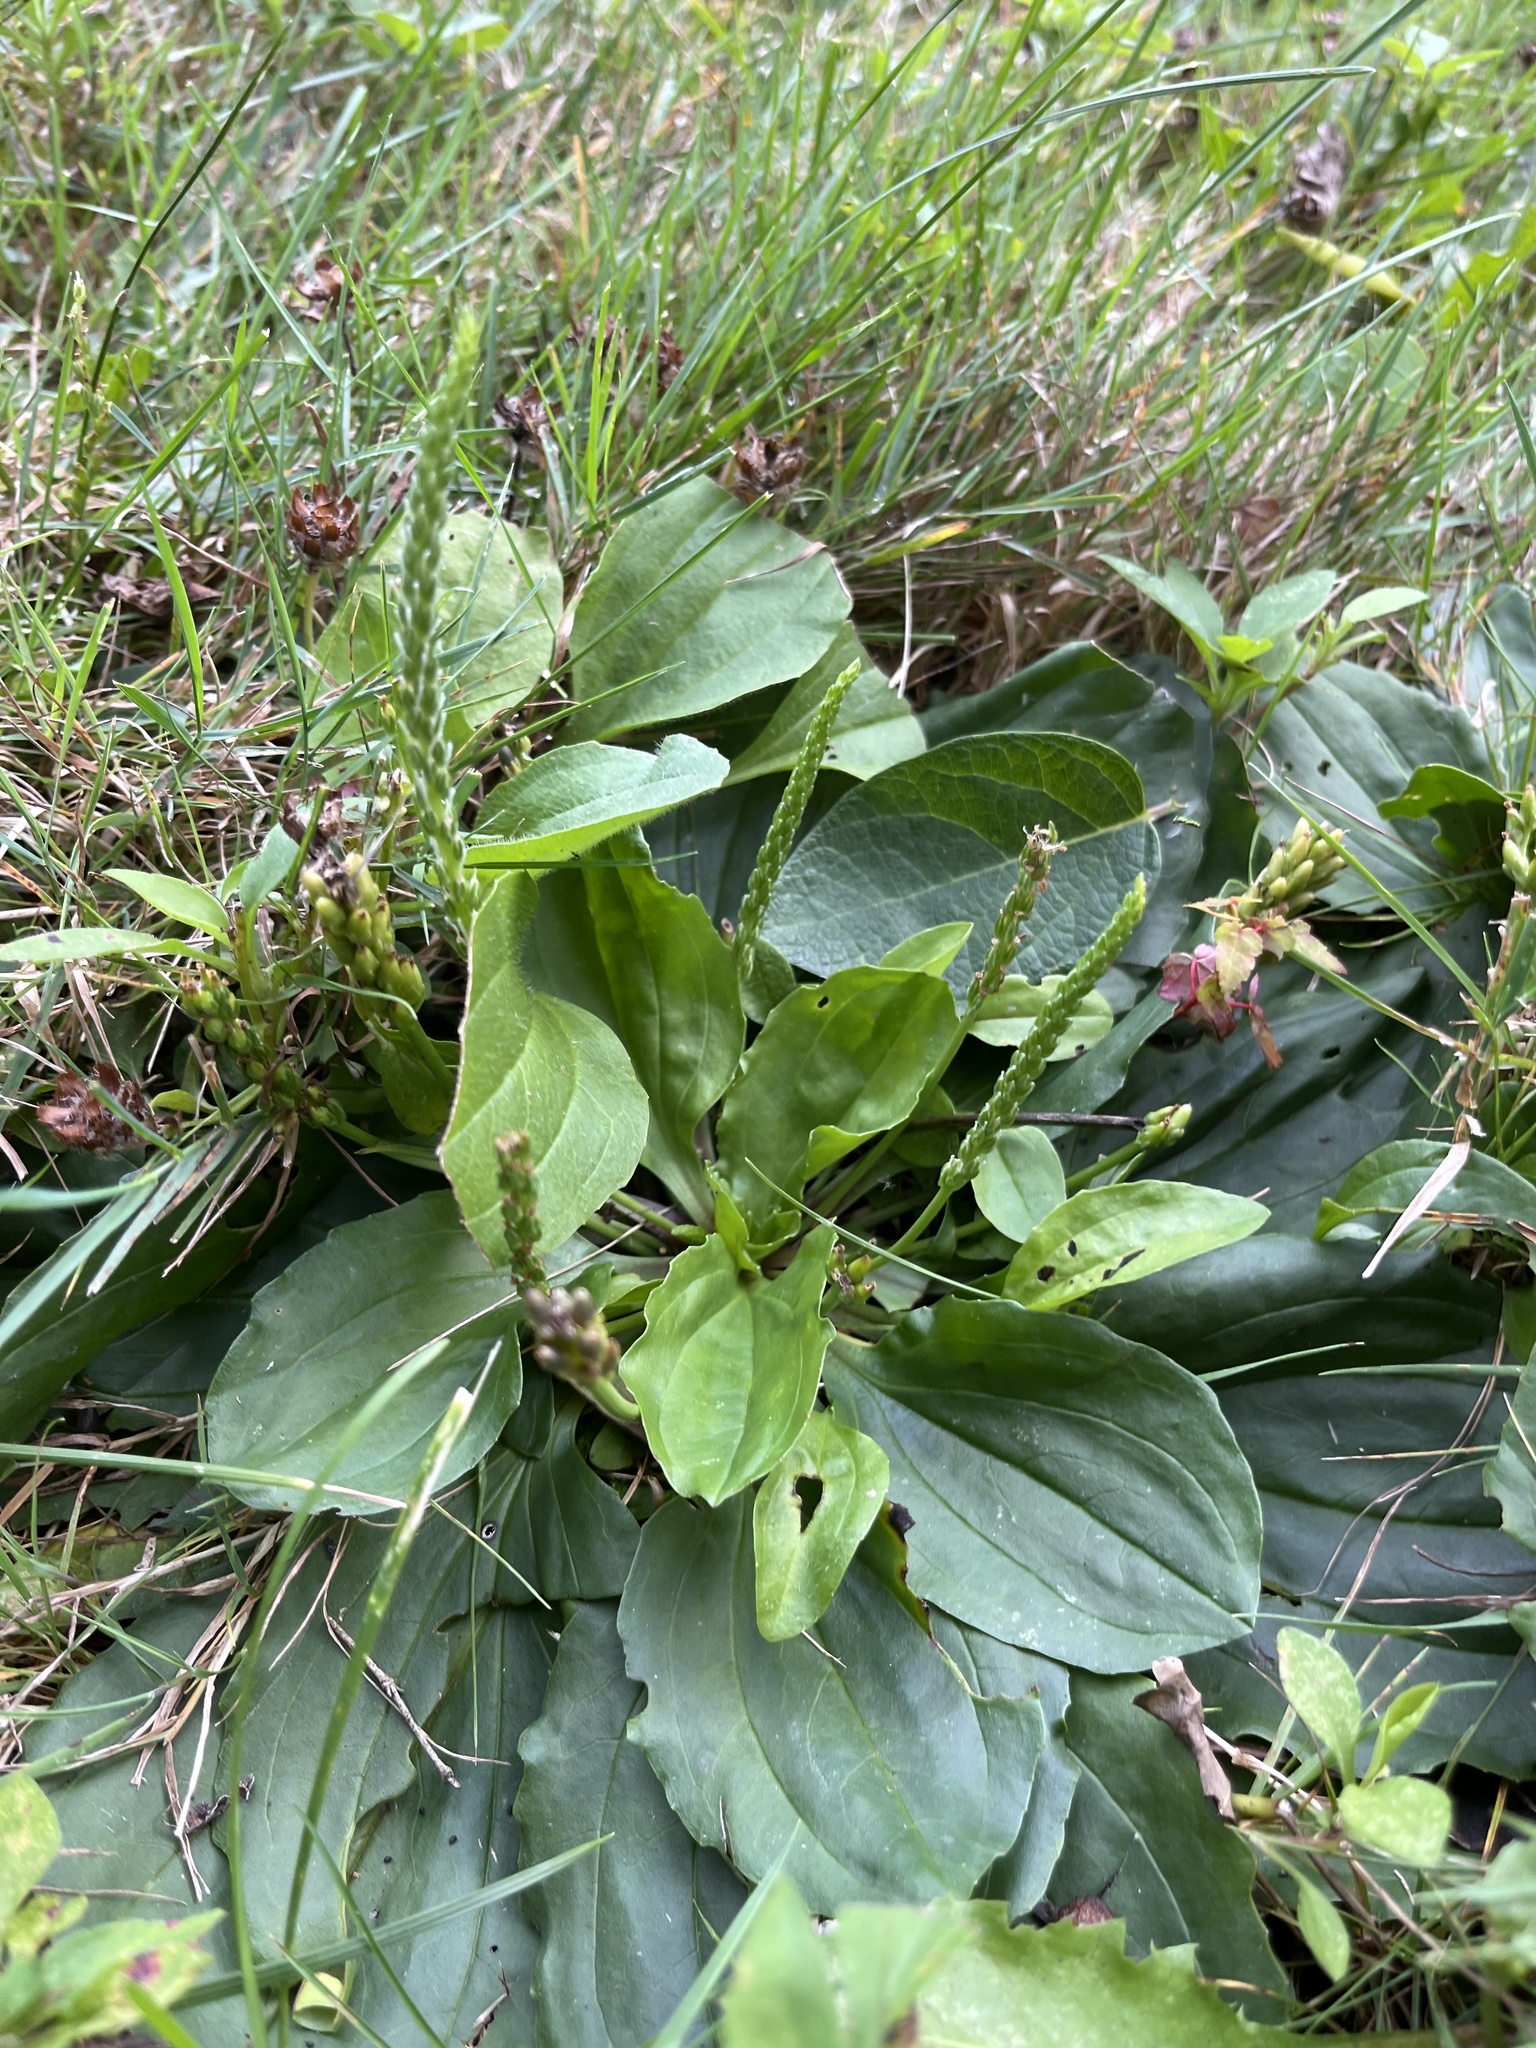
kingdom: Plantae
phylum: Tracheophyta
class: Magnoliopsida
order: Lamiales
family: Plantaginaceae
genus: Plantago
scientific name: Plantago rugelii
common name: American plantain
